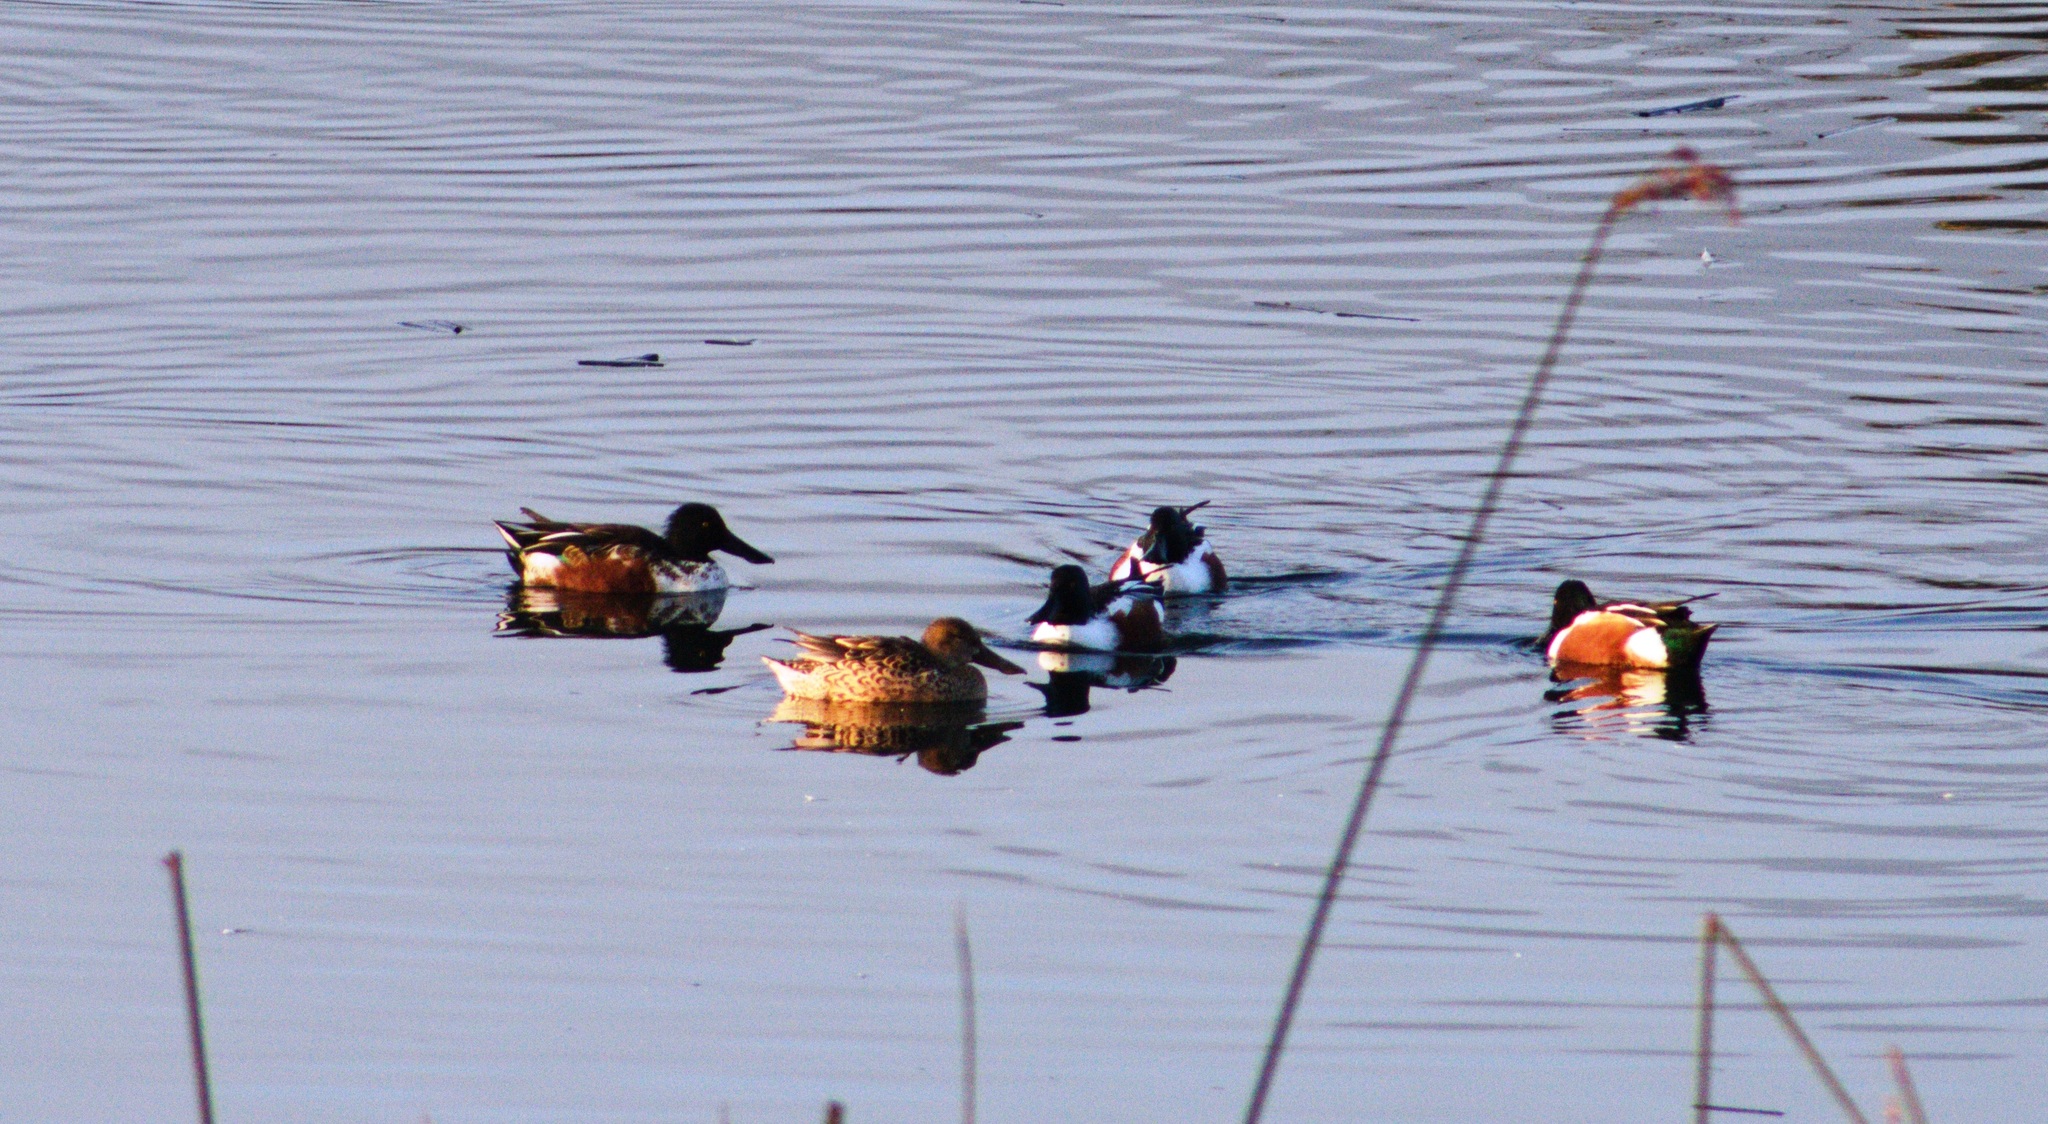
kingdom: Animalia
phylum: Chordata
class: Aves
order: Anseriformes
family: Anatidae
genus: Spatula
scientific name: Spatula clypeata
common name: Northern shoveler
